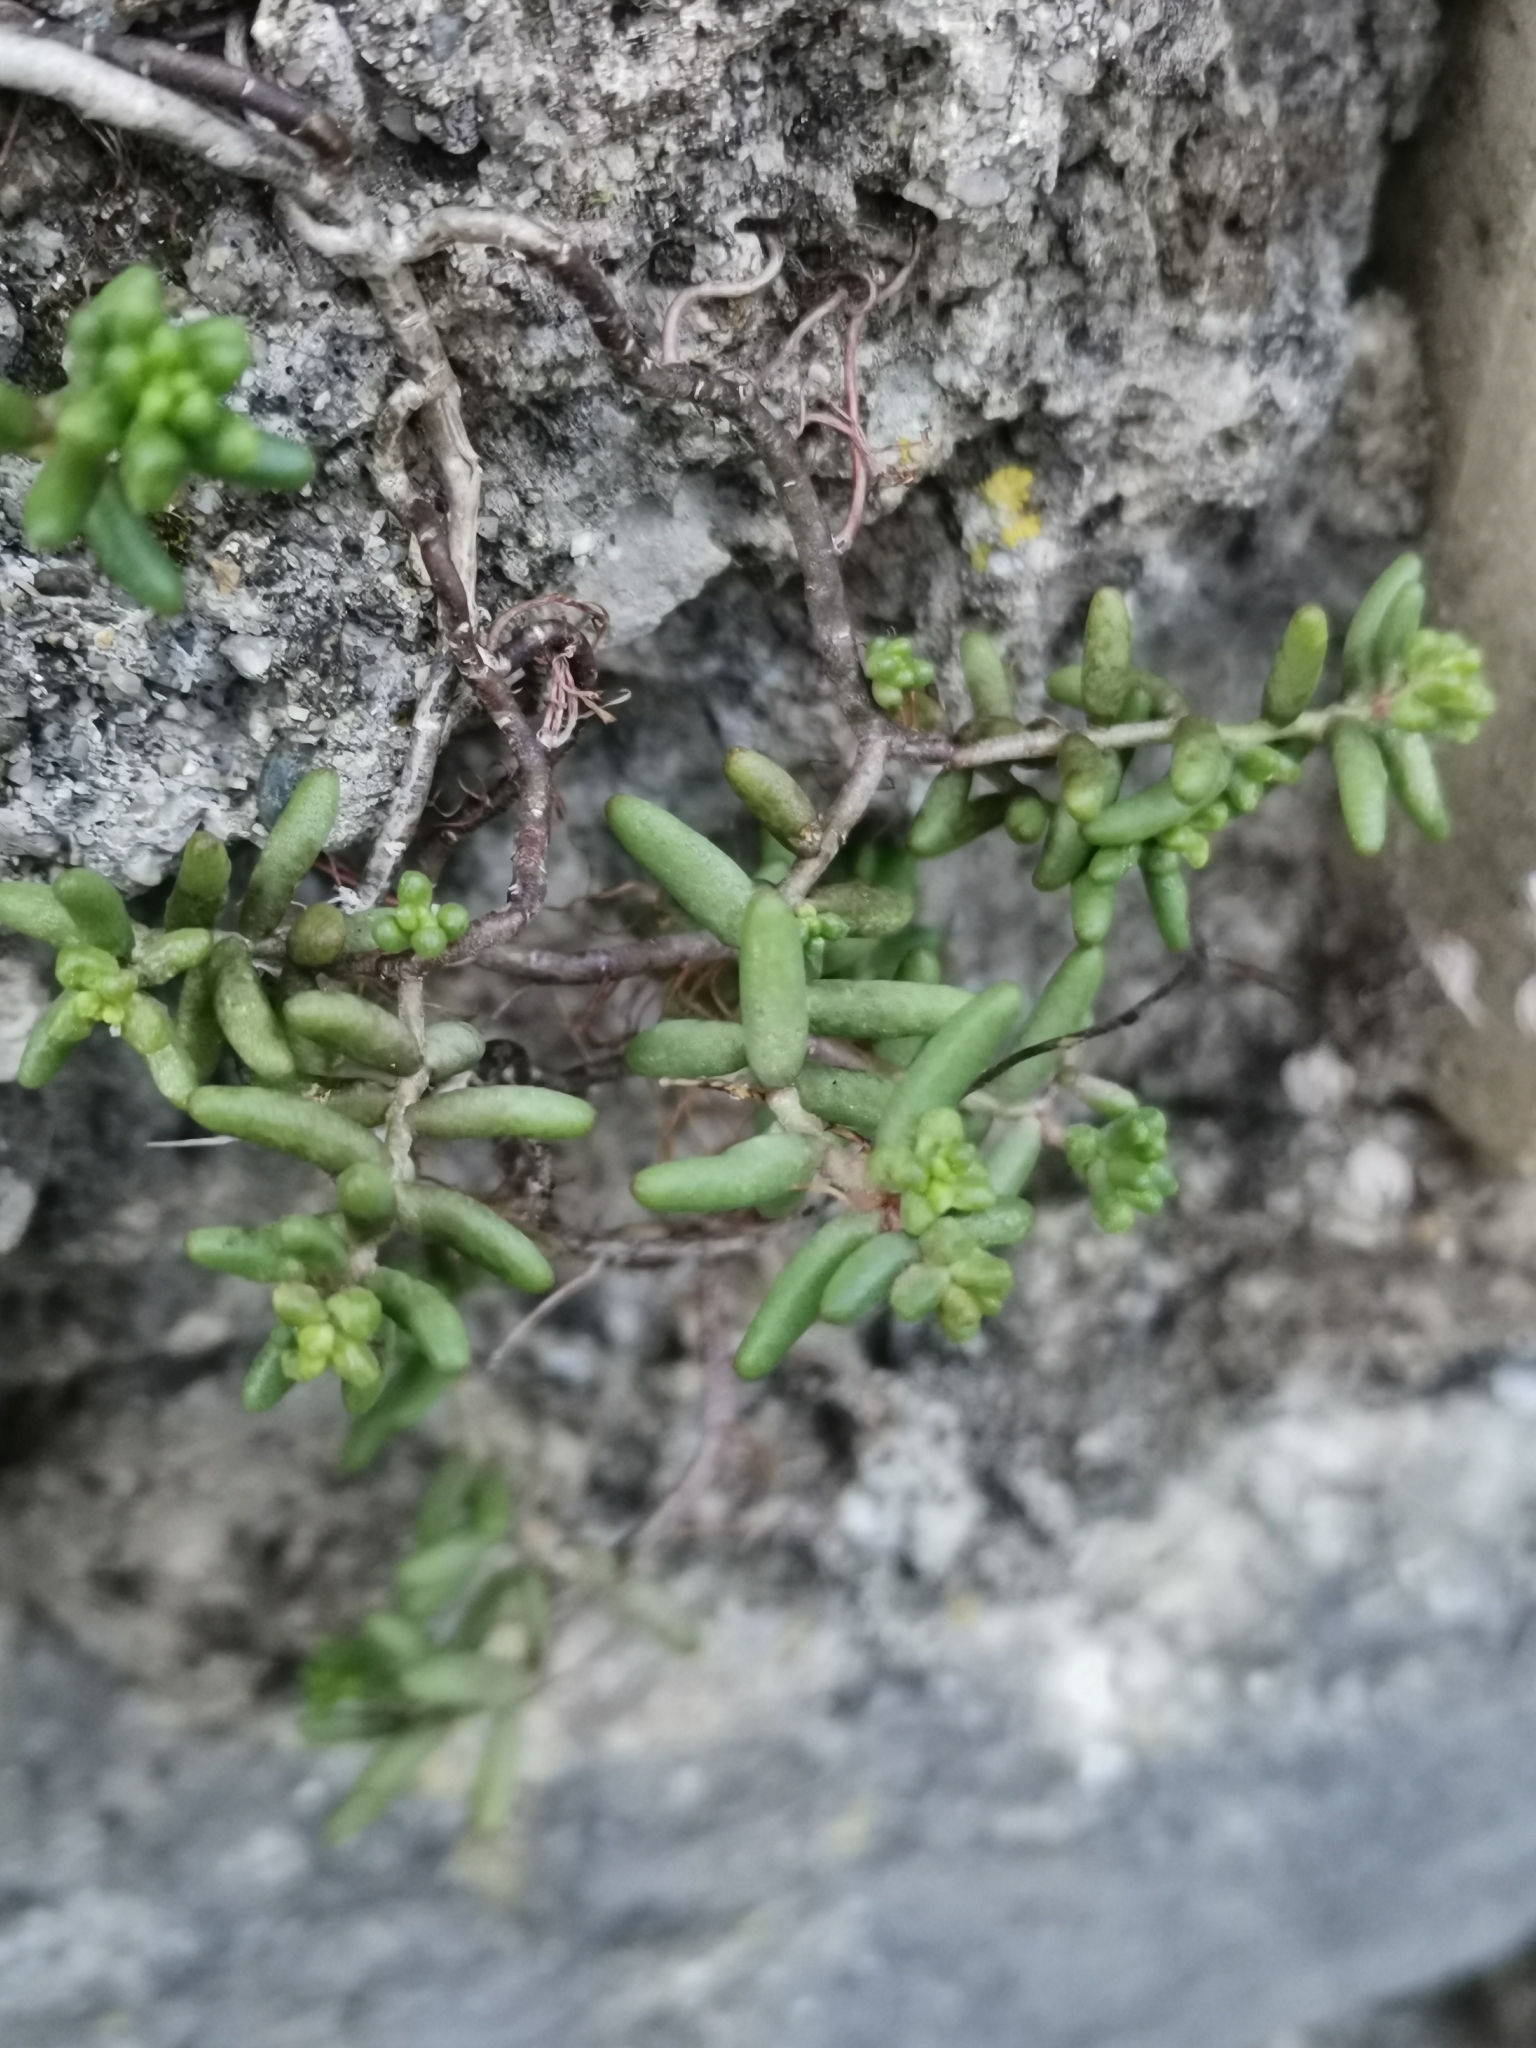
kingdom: Plantae
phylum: Tracheophyta
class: Magnoliopsida
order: Saxifragales
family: Crassulaceae
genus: Sedum
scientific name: Sedum album
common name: White stonecrop
